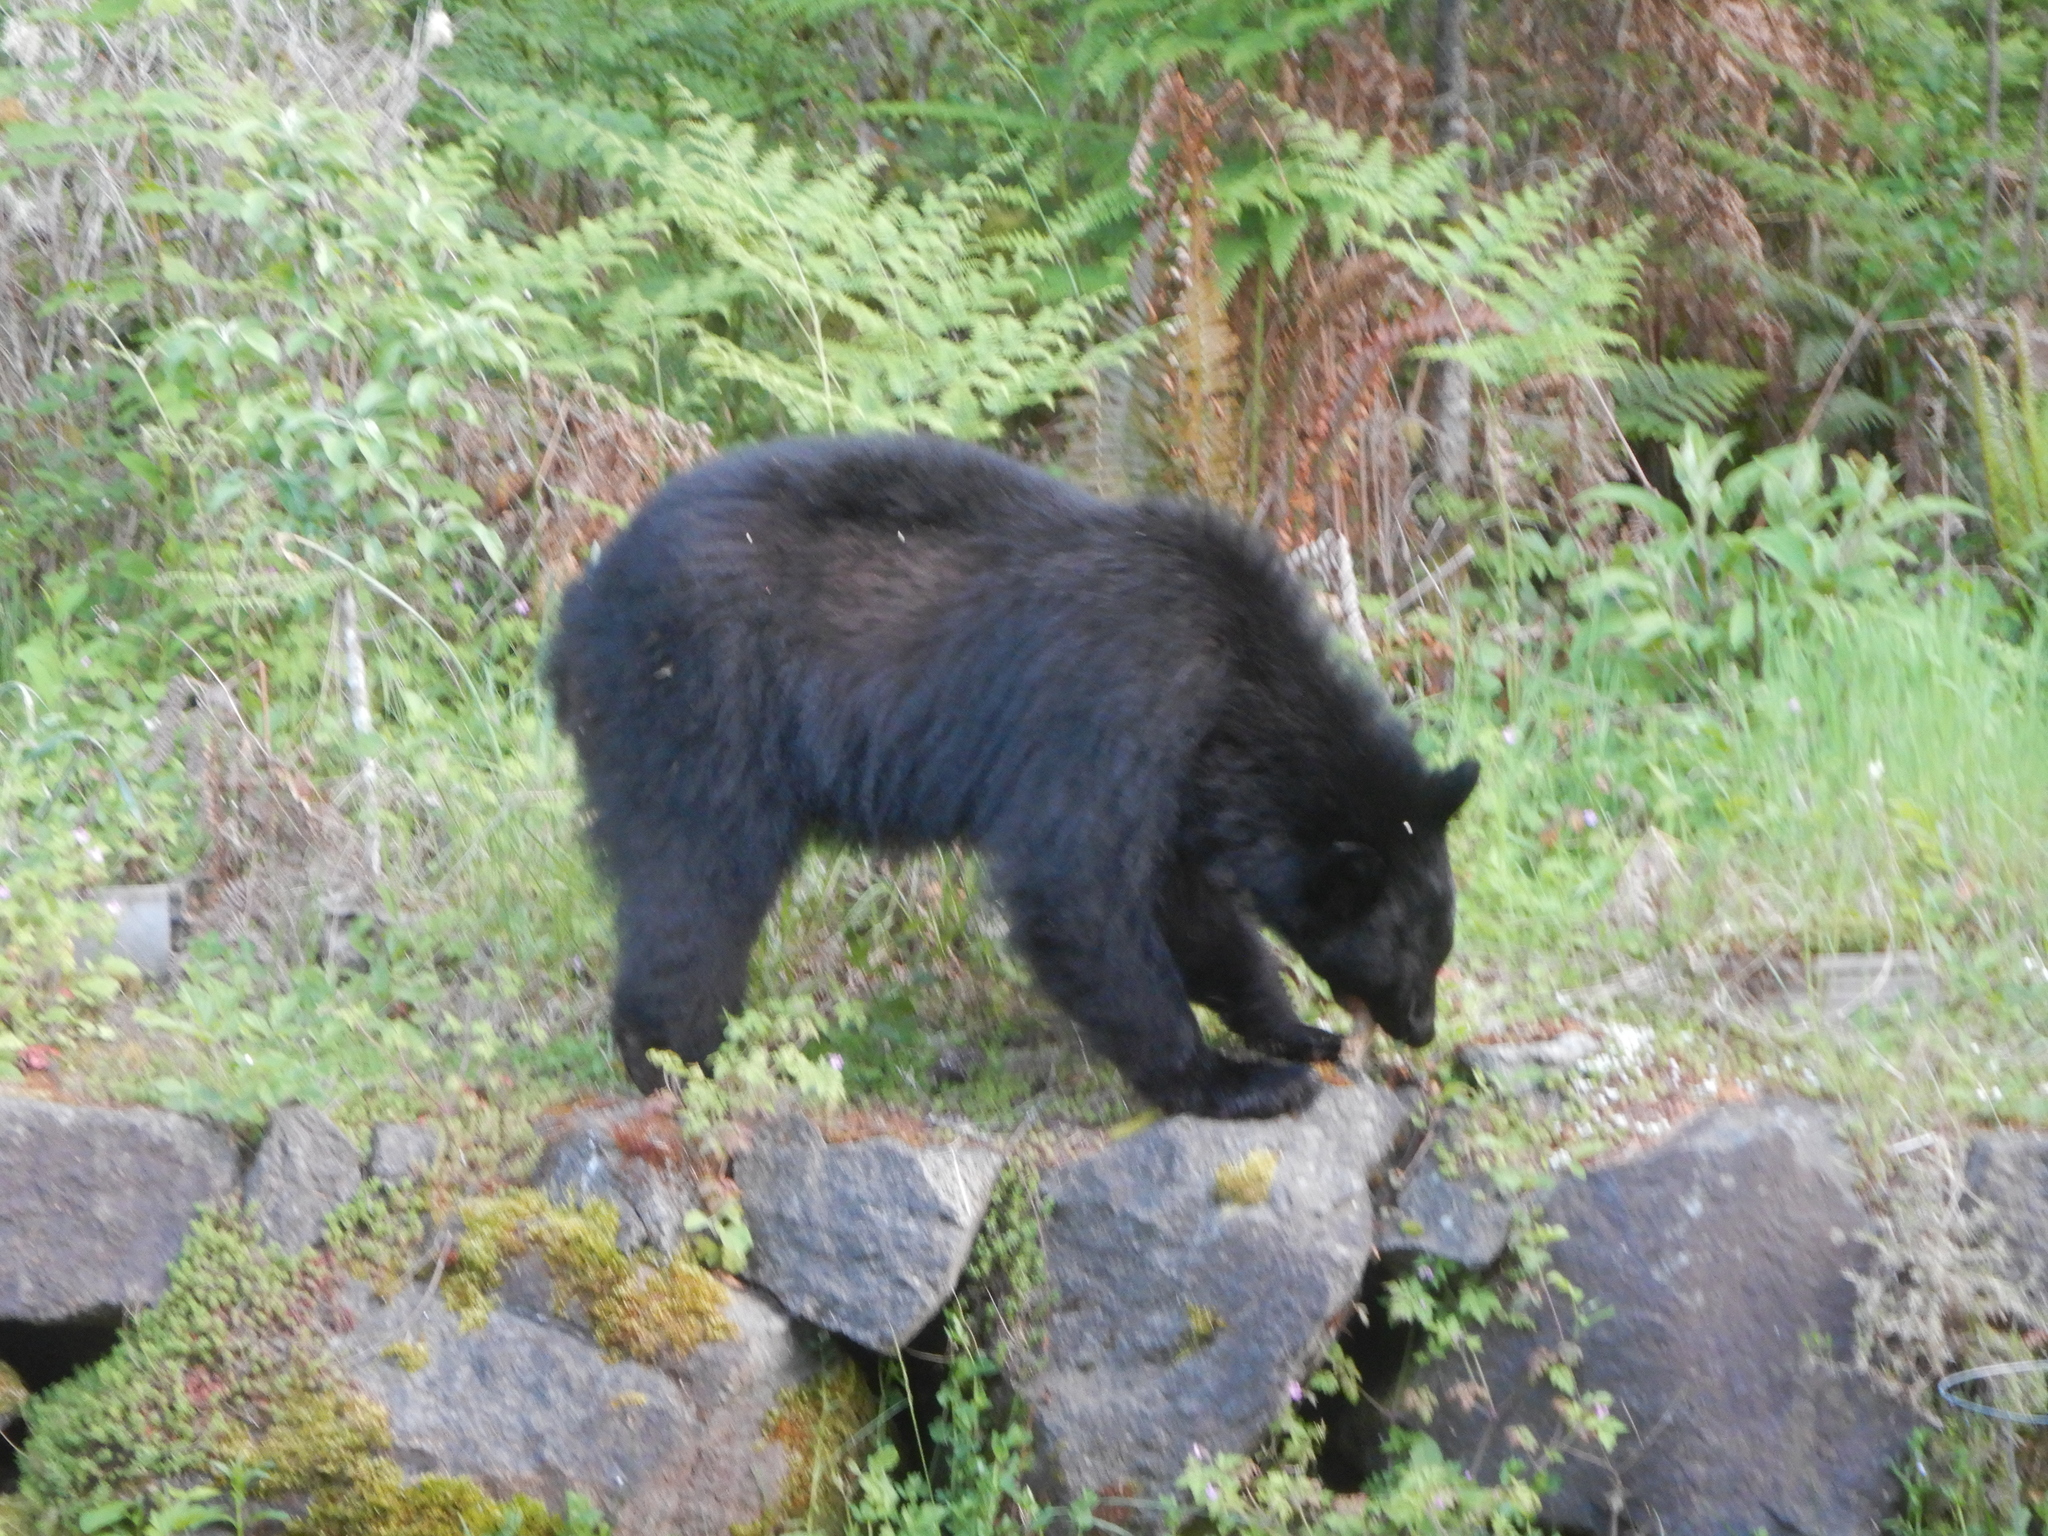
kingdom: Animalia
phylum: Chordata
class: Mammalia
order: Carnivora
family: Ursidae
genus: Ursus
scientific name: Ursus americanus
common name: American black bear
